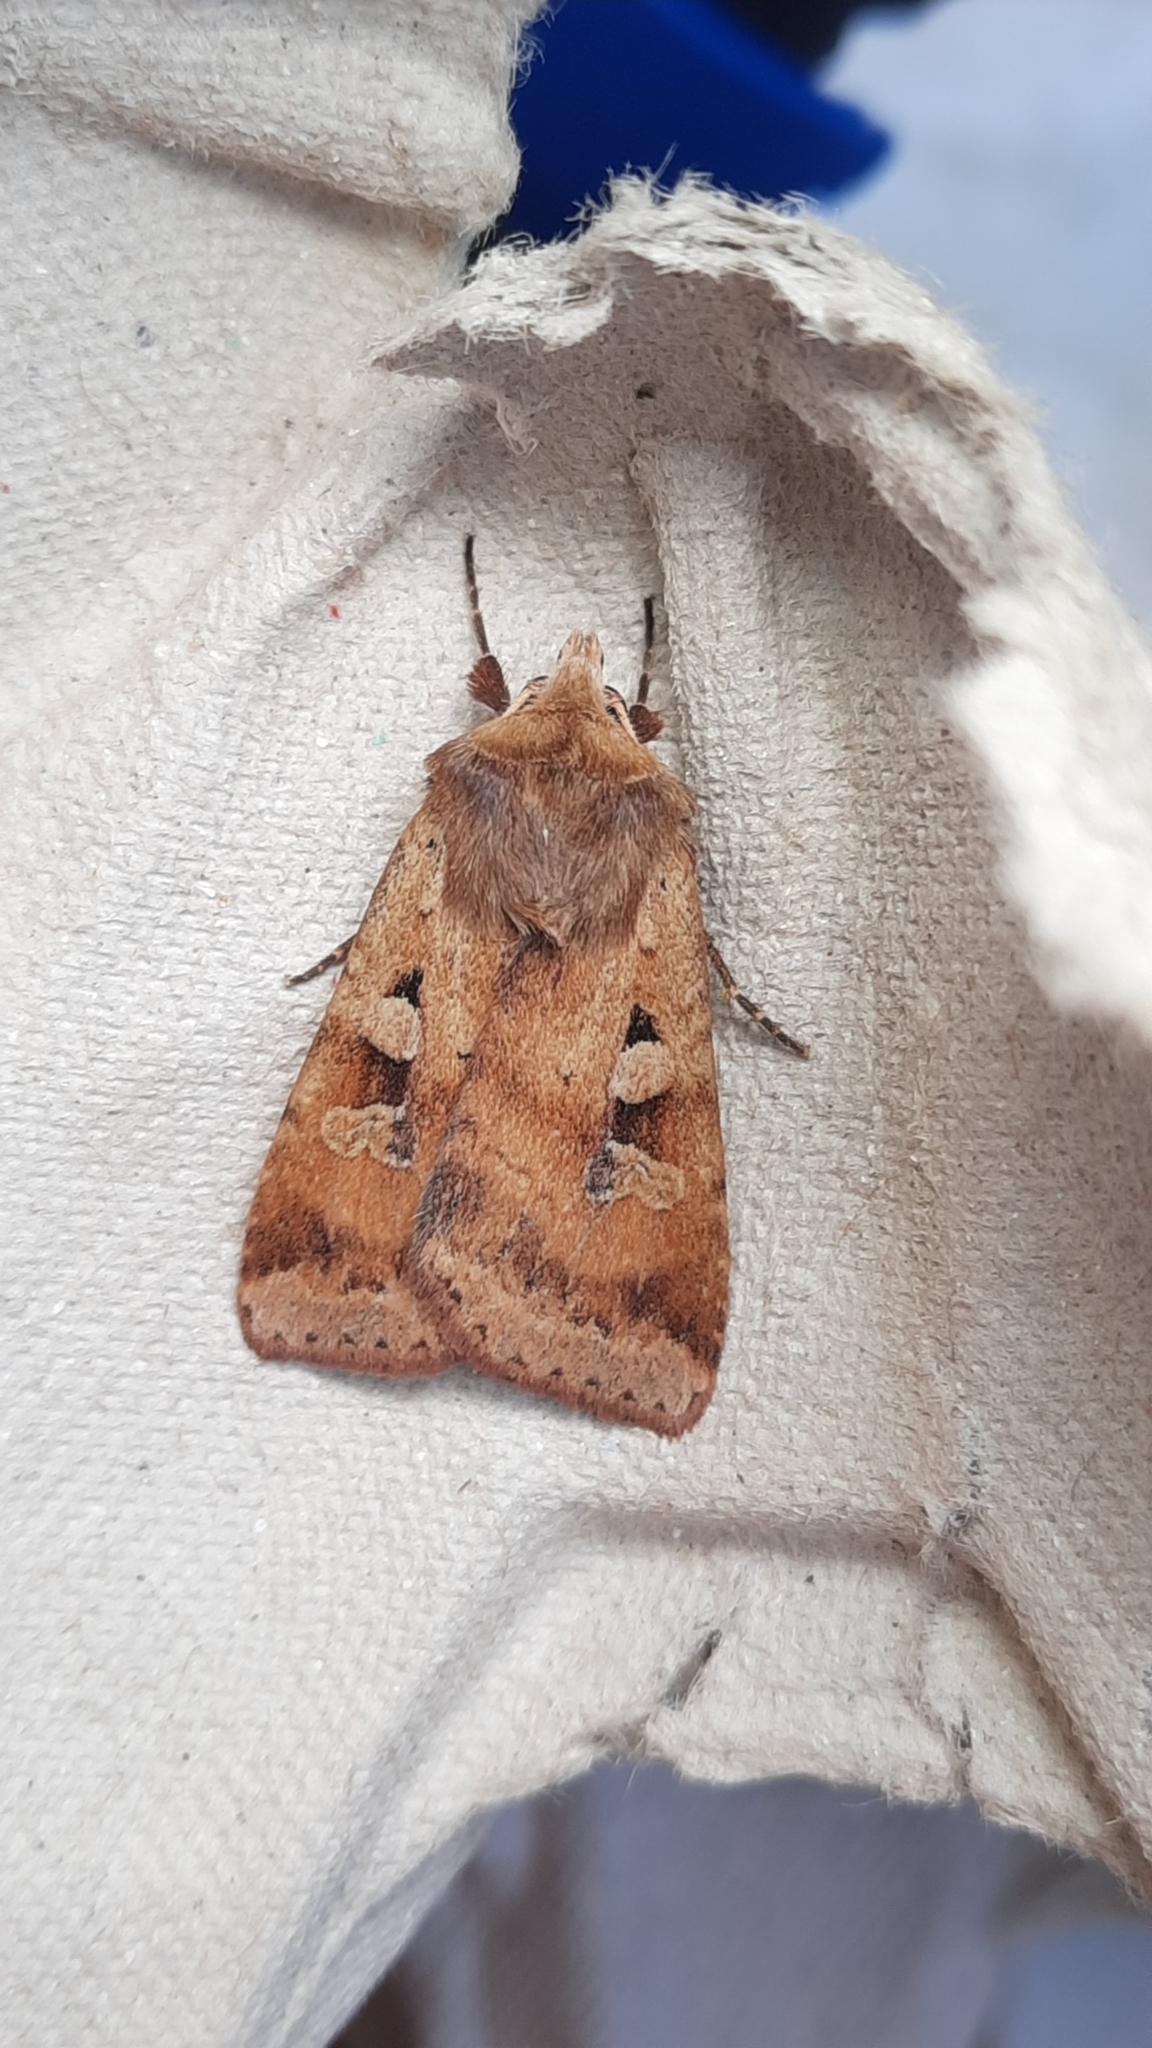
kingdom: Animalia
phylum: Arthropoda
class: Insecta
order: Lepidoptera
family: Noctuidae
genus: Diarsia
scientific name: Diarsia mendica
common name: Ingrailed clay
